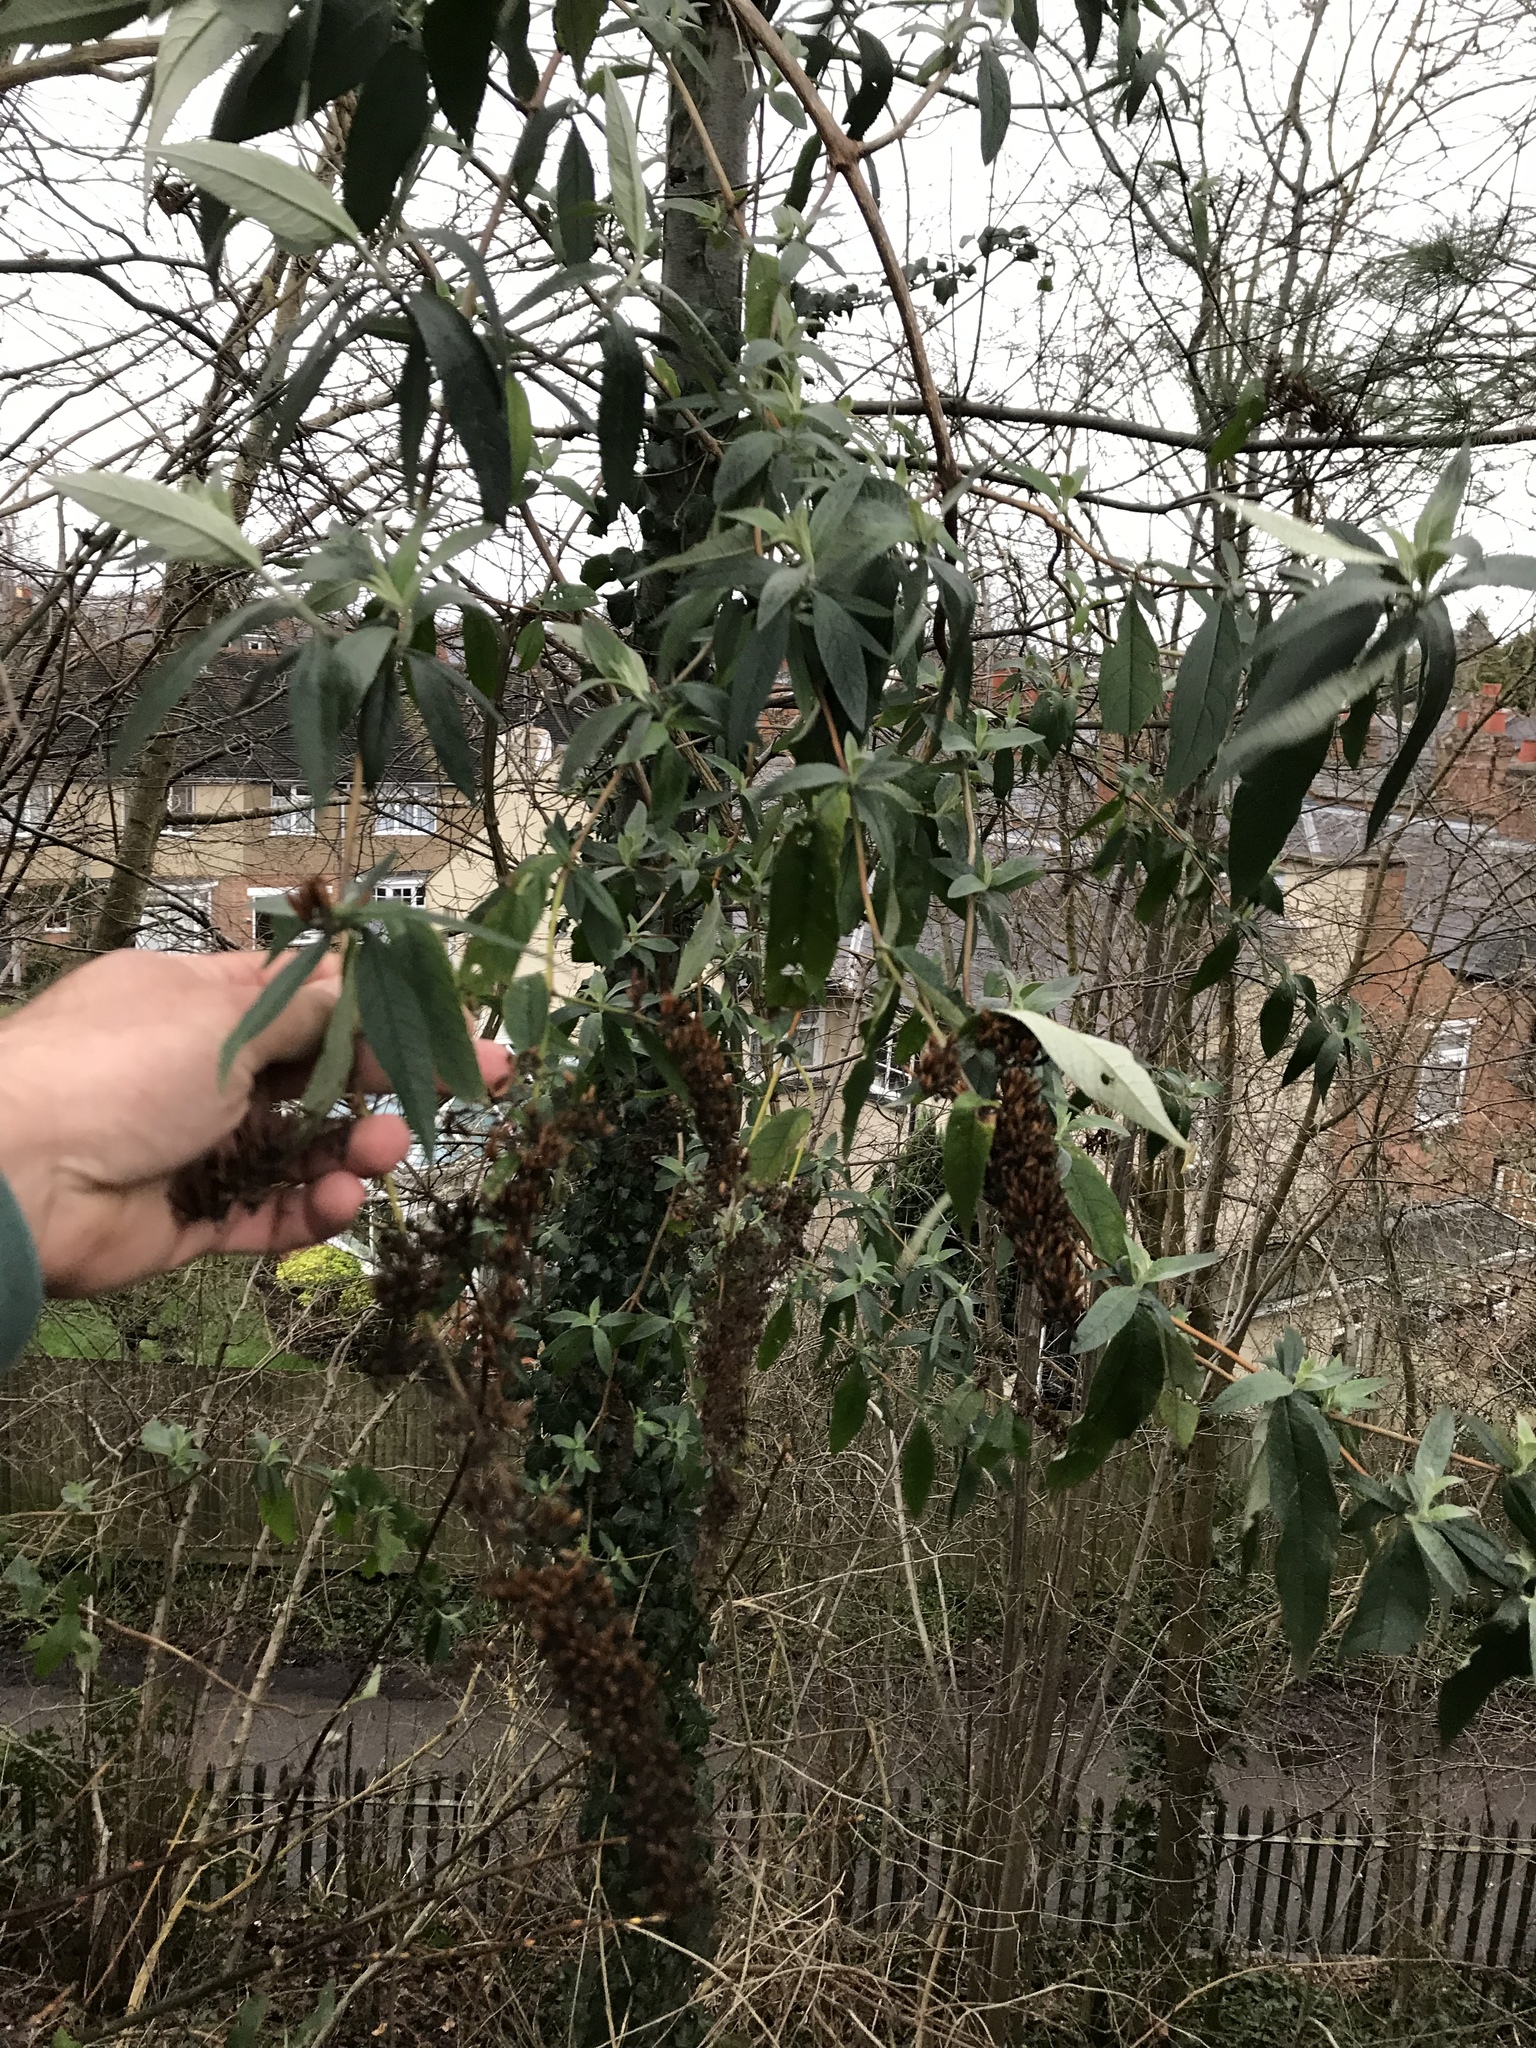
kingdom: Plantae
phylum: Tracheophyta
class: Magnoliopsida
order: Lamiales
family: Scrophulariaceae
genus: Buddleja
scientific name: Buddleja davidii
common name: Butterfly-bush
